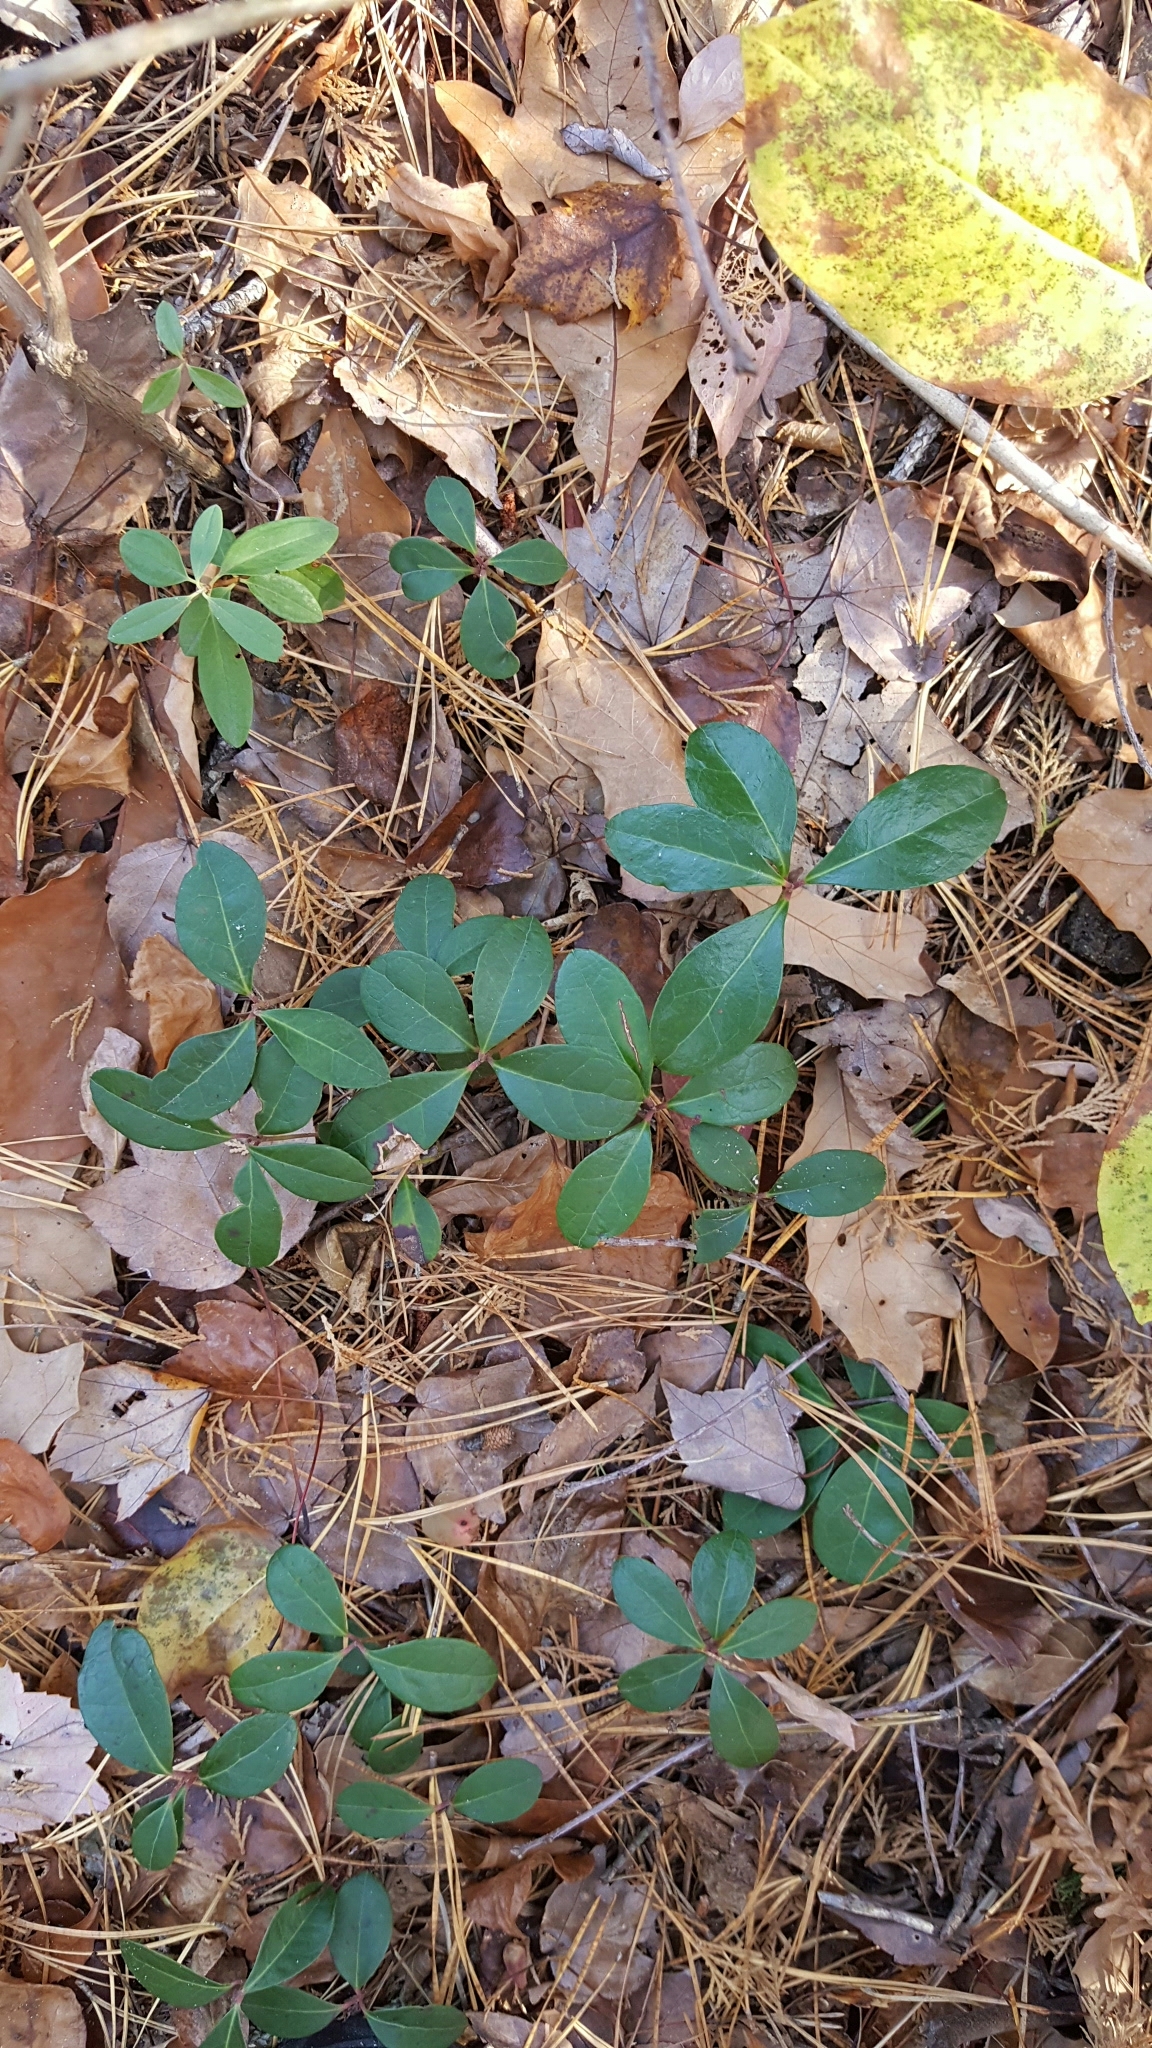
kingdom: Plantae
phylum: Tracheophyta
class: Magnoliopsida
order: Ericales
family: Ericaceae
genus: Gaultheria
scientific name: Gaultheria procumbens
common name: Checkerberry
